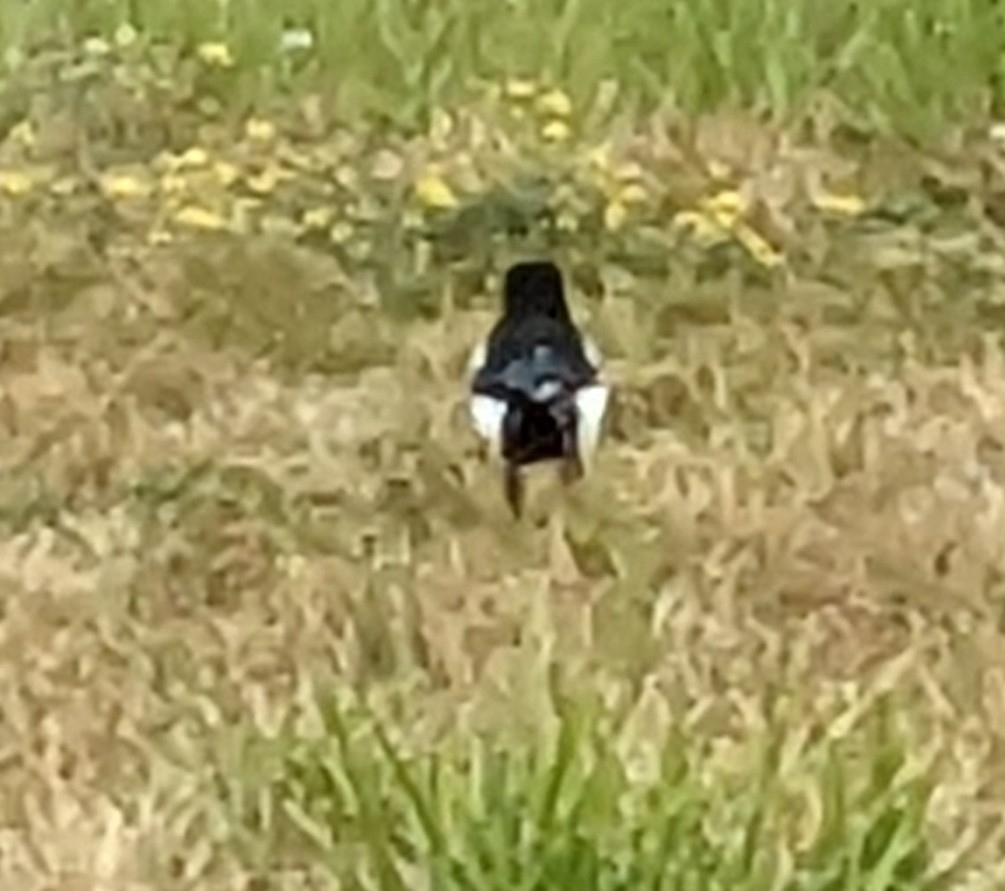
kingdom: Animalia
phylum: Chordata
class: Aves
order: Passeriformes
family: Corvidae
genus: Pica
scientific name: Pica pica
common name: Eurasian magpie
